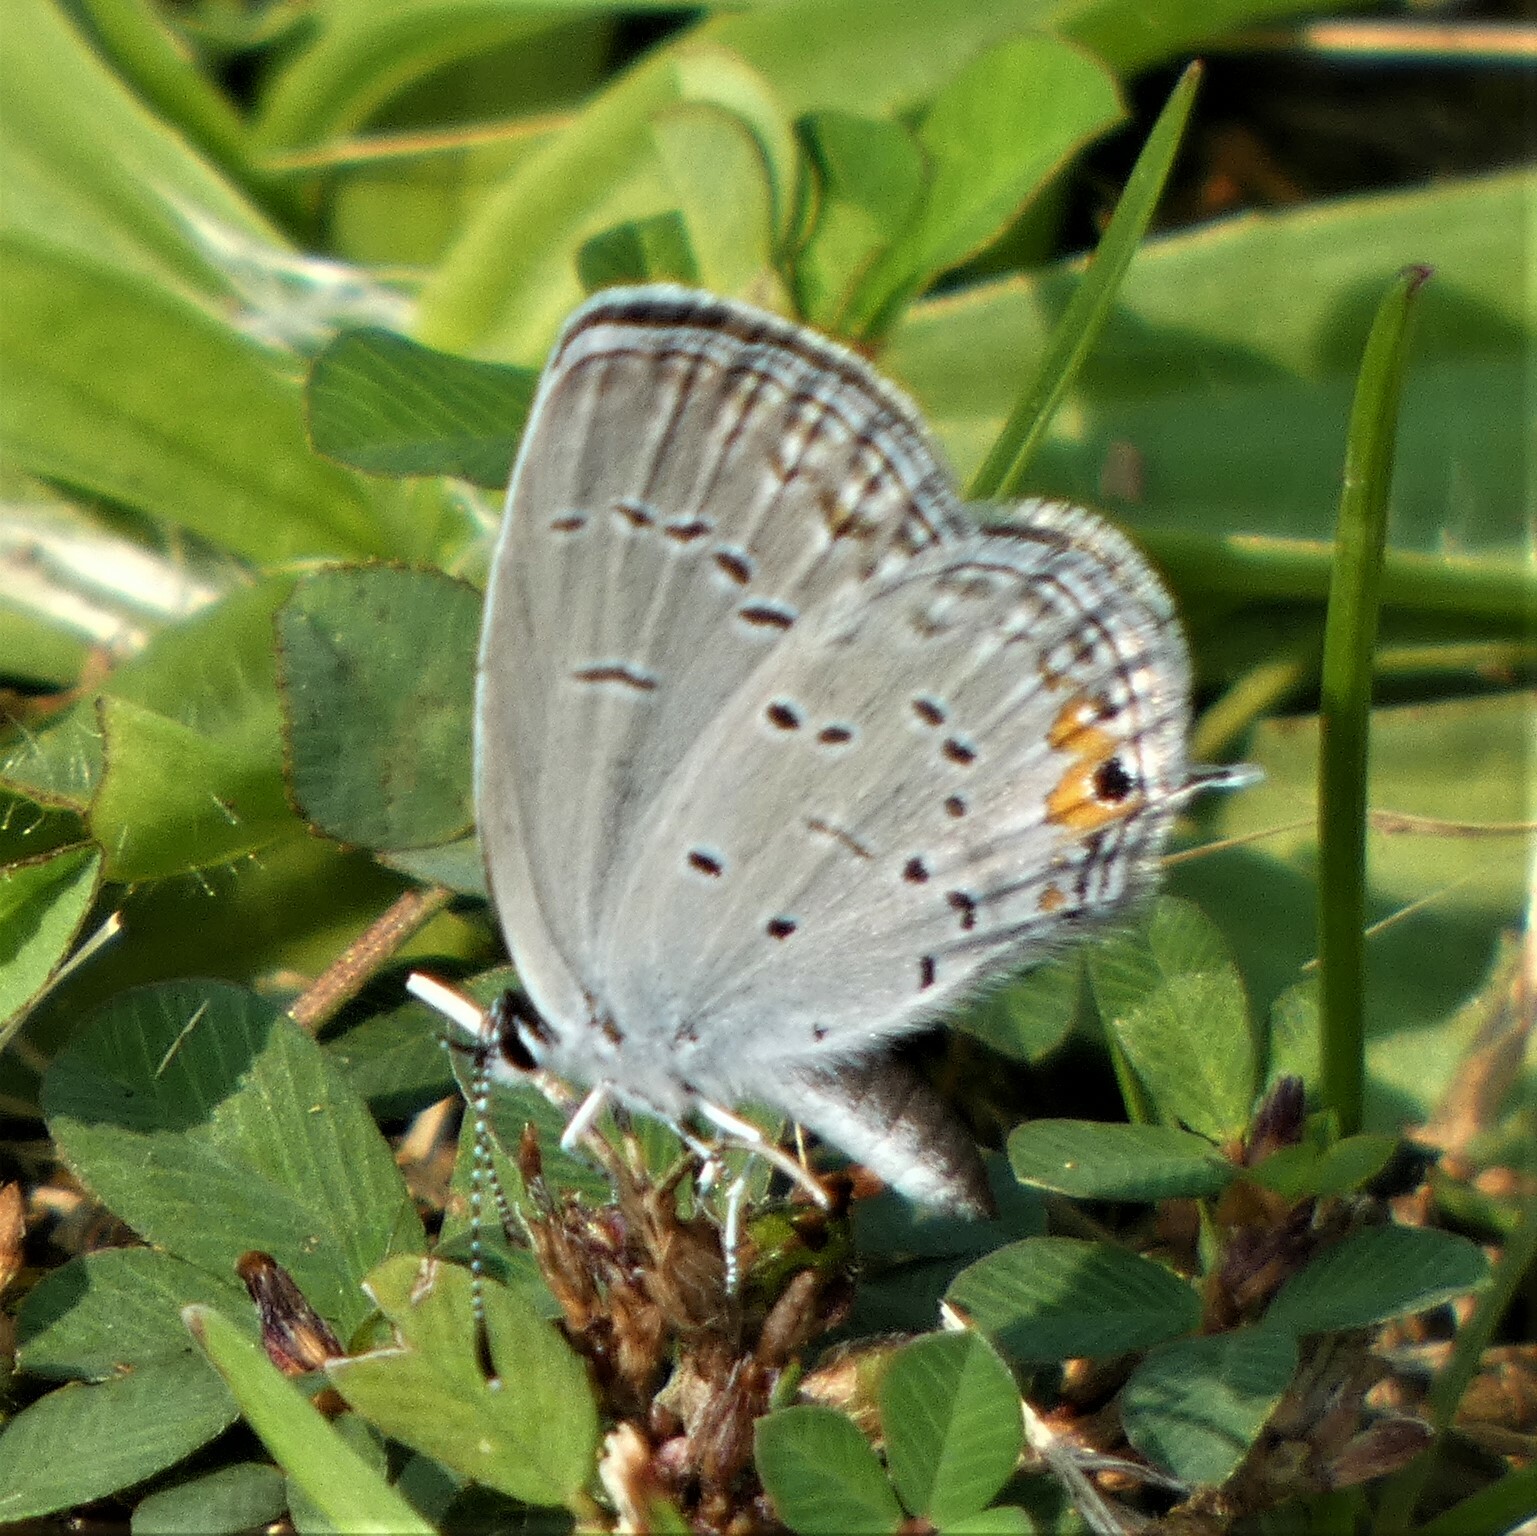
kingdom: Animalia
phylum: Arthropoda
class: Insecta
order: Lepidoptera
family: Lycaenidae
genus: Elkalyce
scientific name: Elkalyce comyntas
